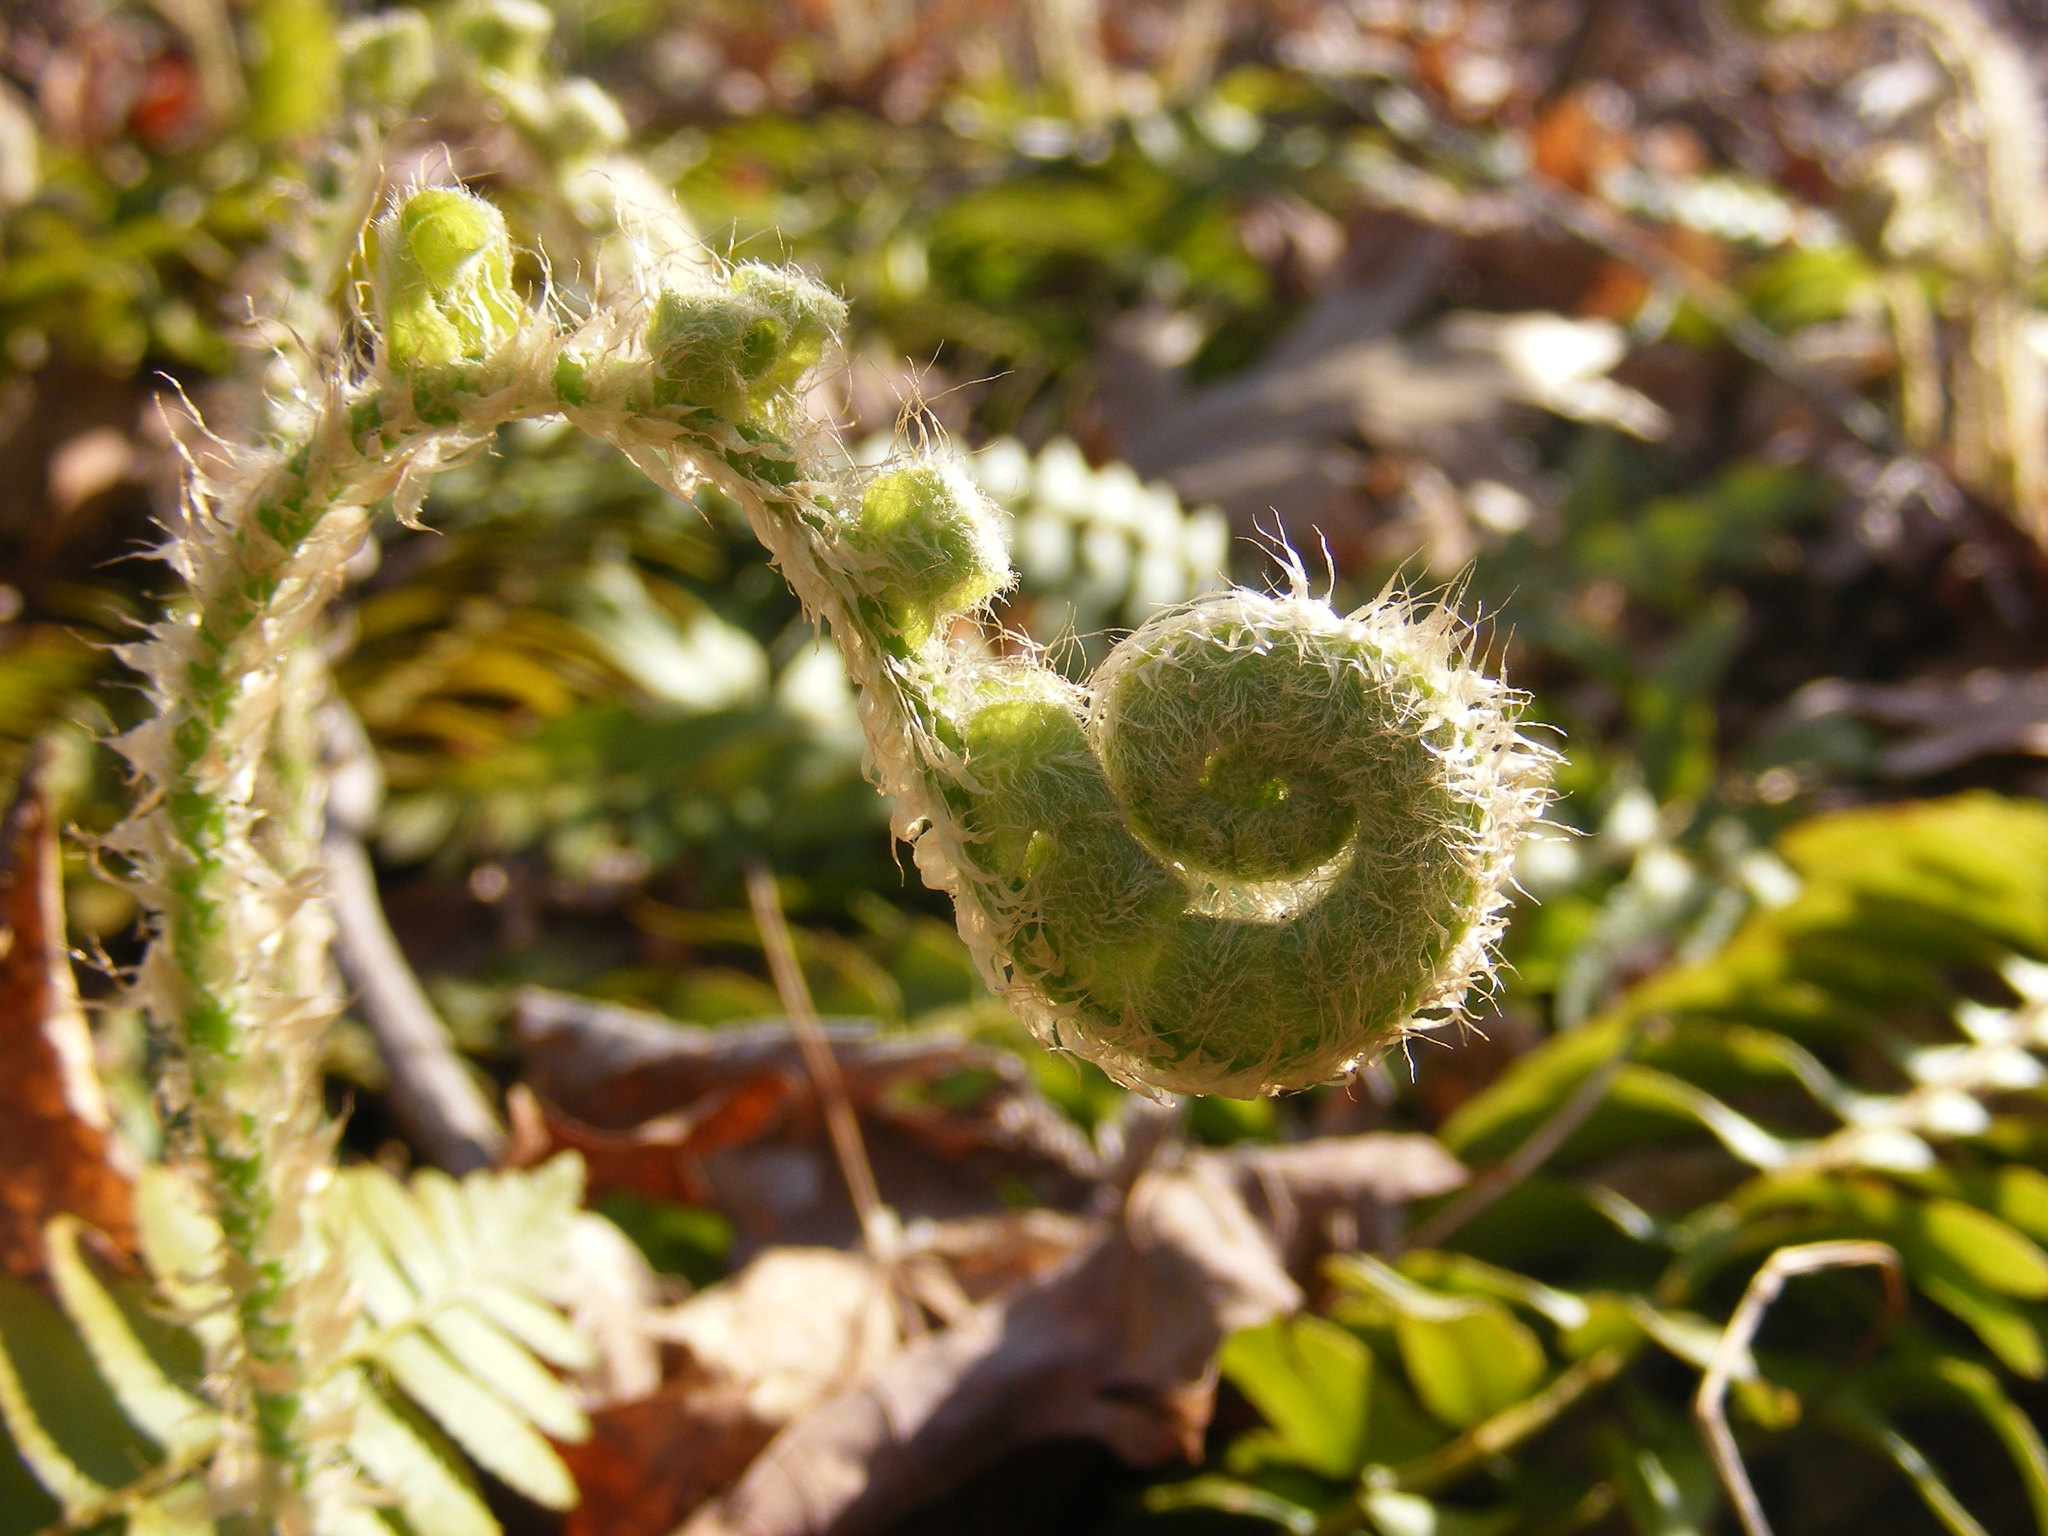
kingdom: Plantae
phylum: Tracheophyta
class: Polypodiopsida
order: Polypodiales
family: Dryopteridaceae
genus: Polystichum
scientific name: Polystichum acrostichoides
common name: Christmas fern
